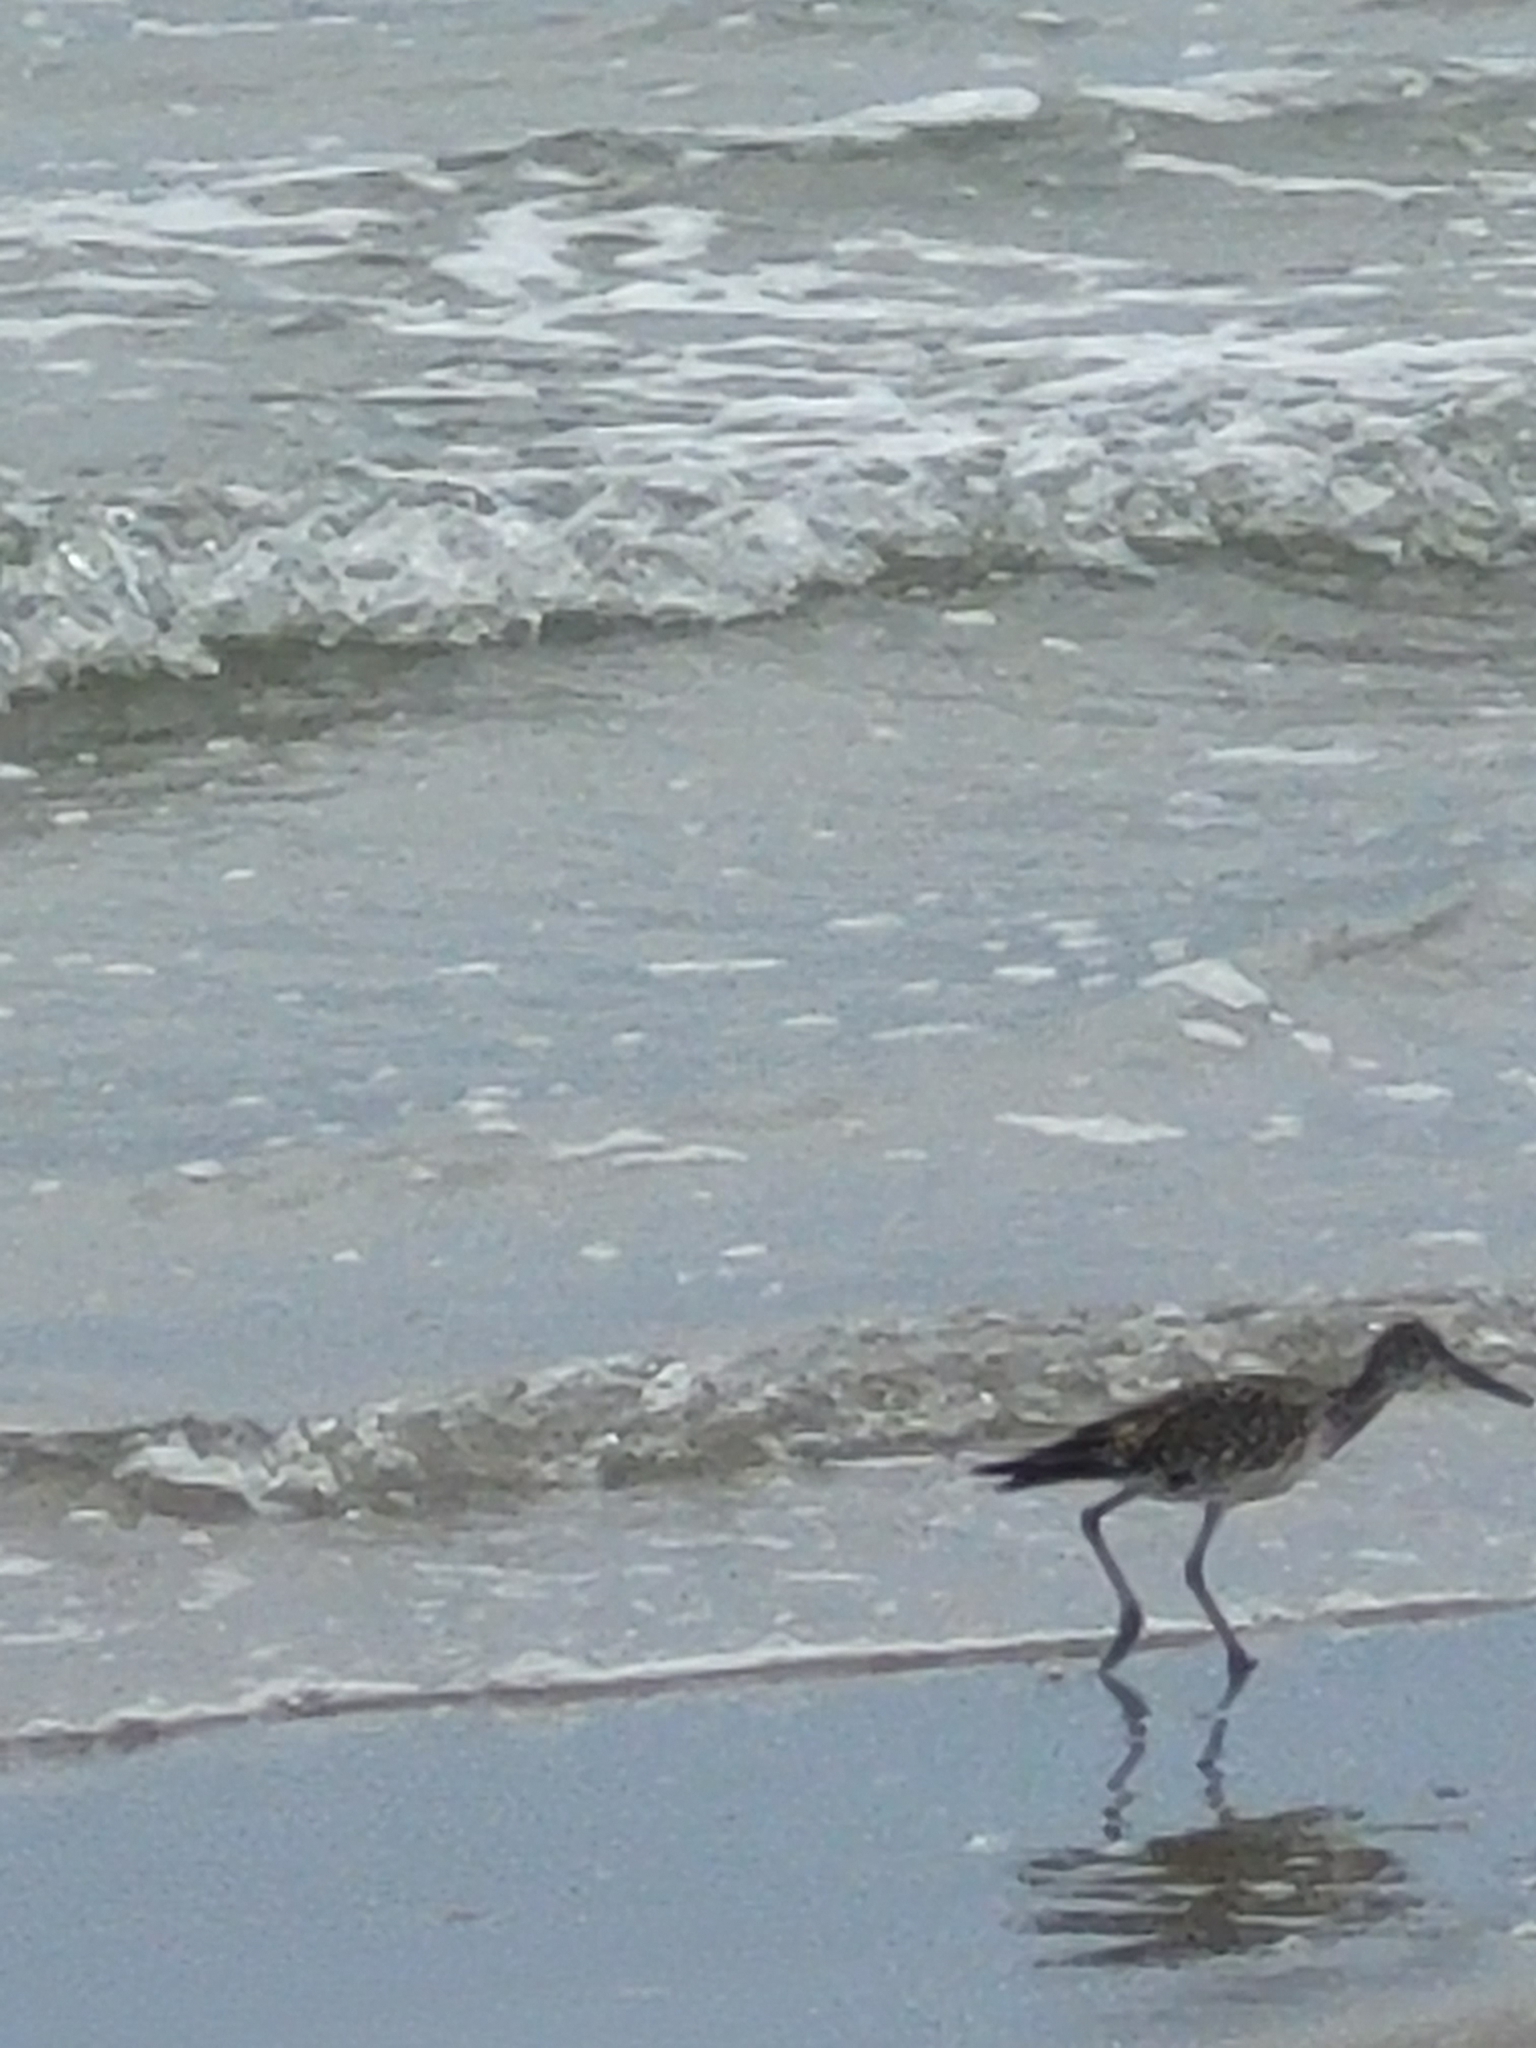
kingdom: Animalia
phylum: Chordata
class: Aves
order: Charadriiformes
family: Scolopacidae
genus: Tringa
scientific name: Tringa semipalmata
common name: Willet
